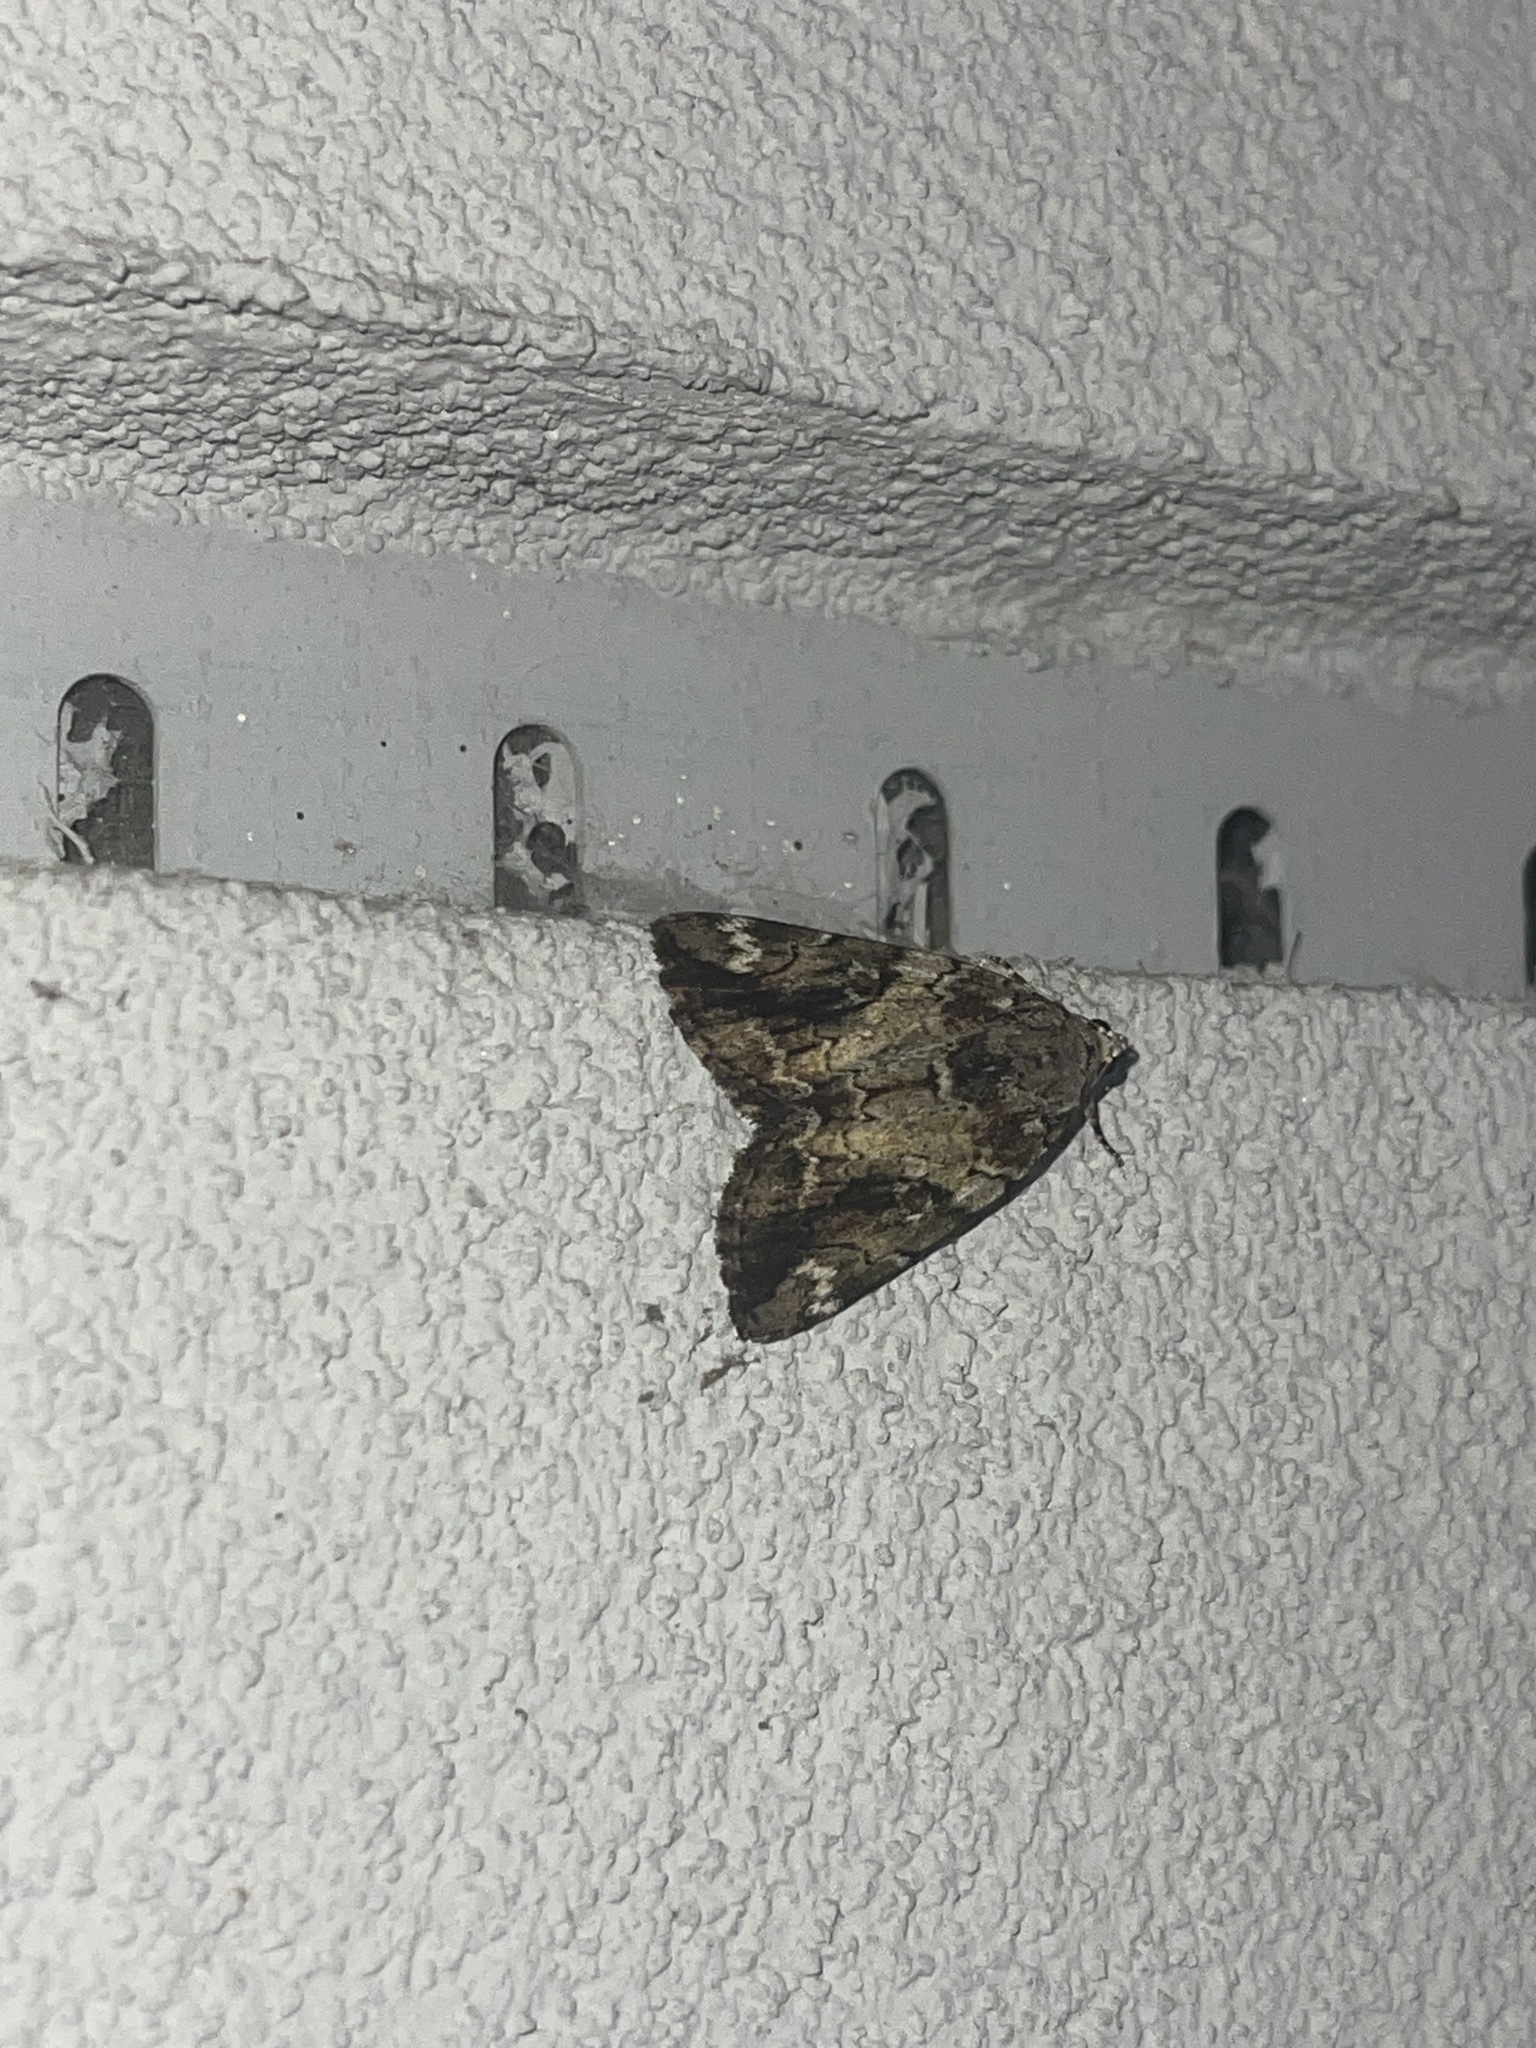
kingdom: Animalia
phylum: Arthropoda
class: Insecta
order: Lepidoptera
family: Erebidae
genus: Catocala
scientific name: Catocala micronympha
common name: Little nymph underwing
